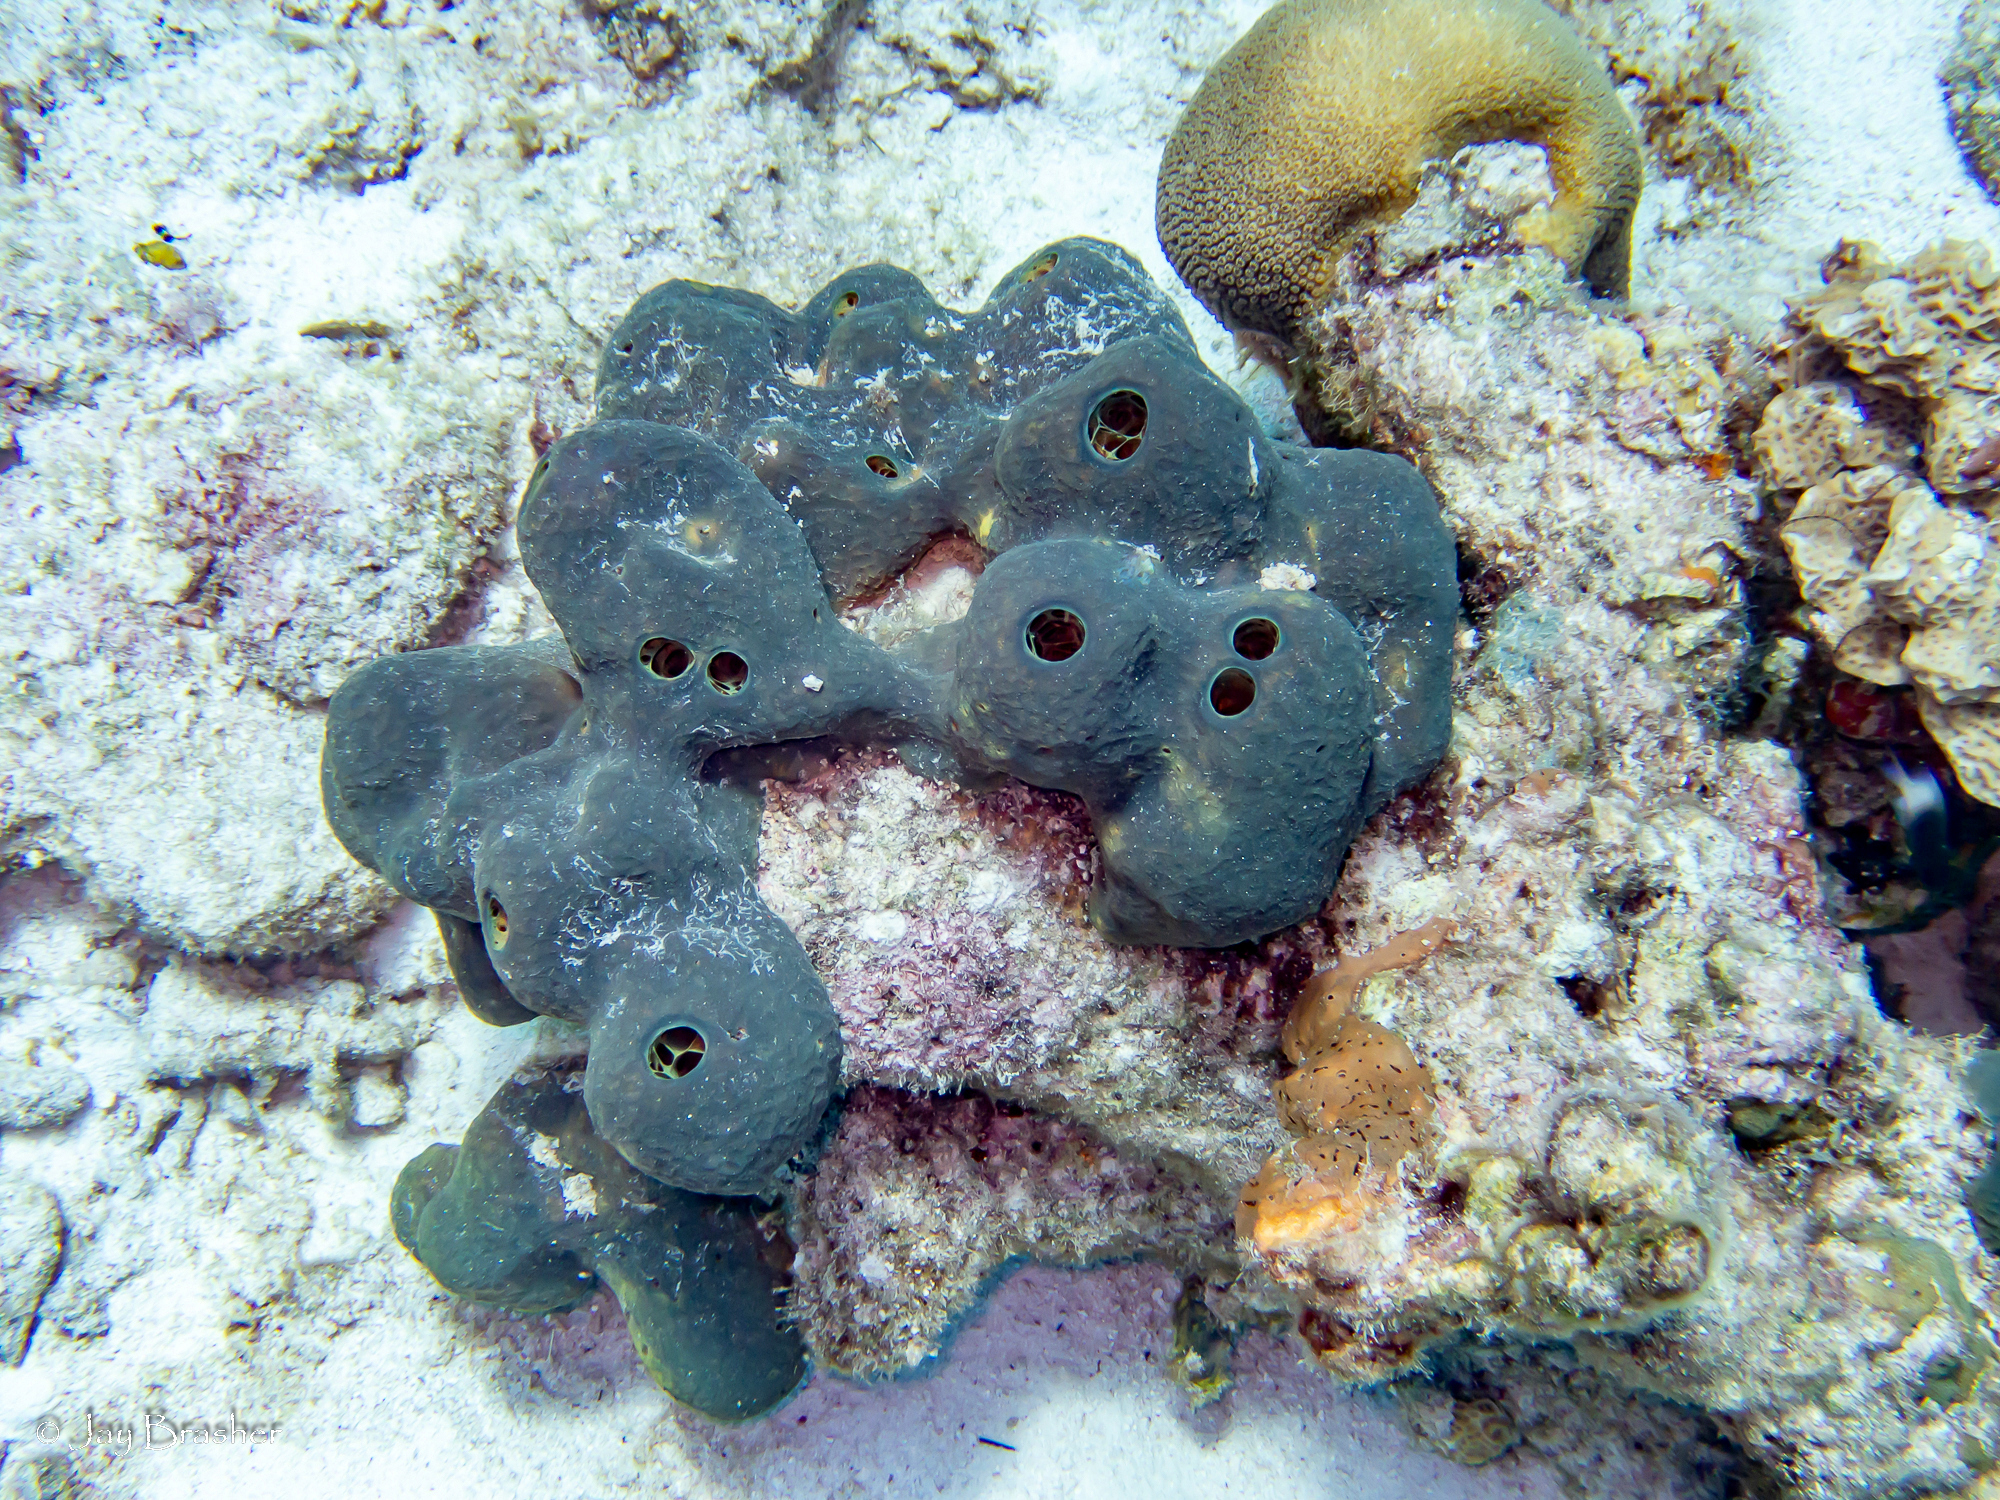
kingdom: Animalia
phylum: Porifera
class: Demospongiae
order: Verongiida
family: Aplysinidae
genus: Verongula
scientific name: Verongula reiswigi
